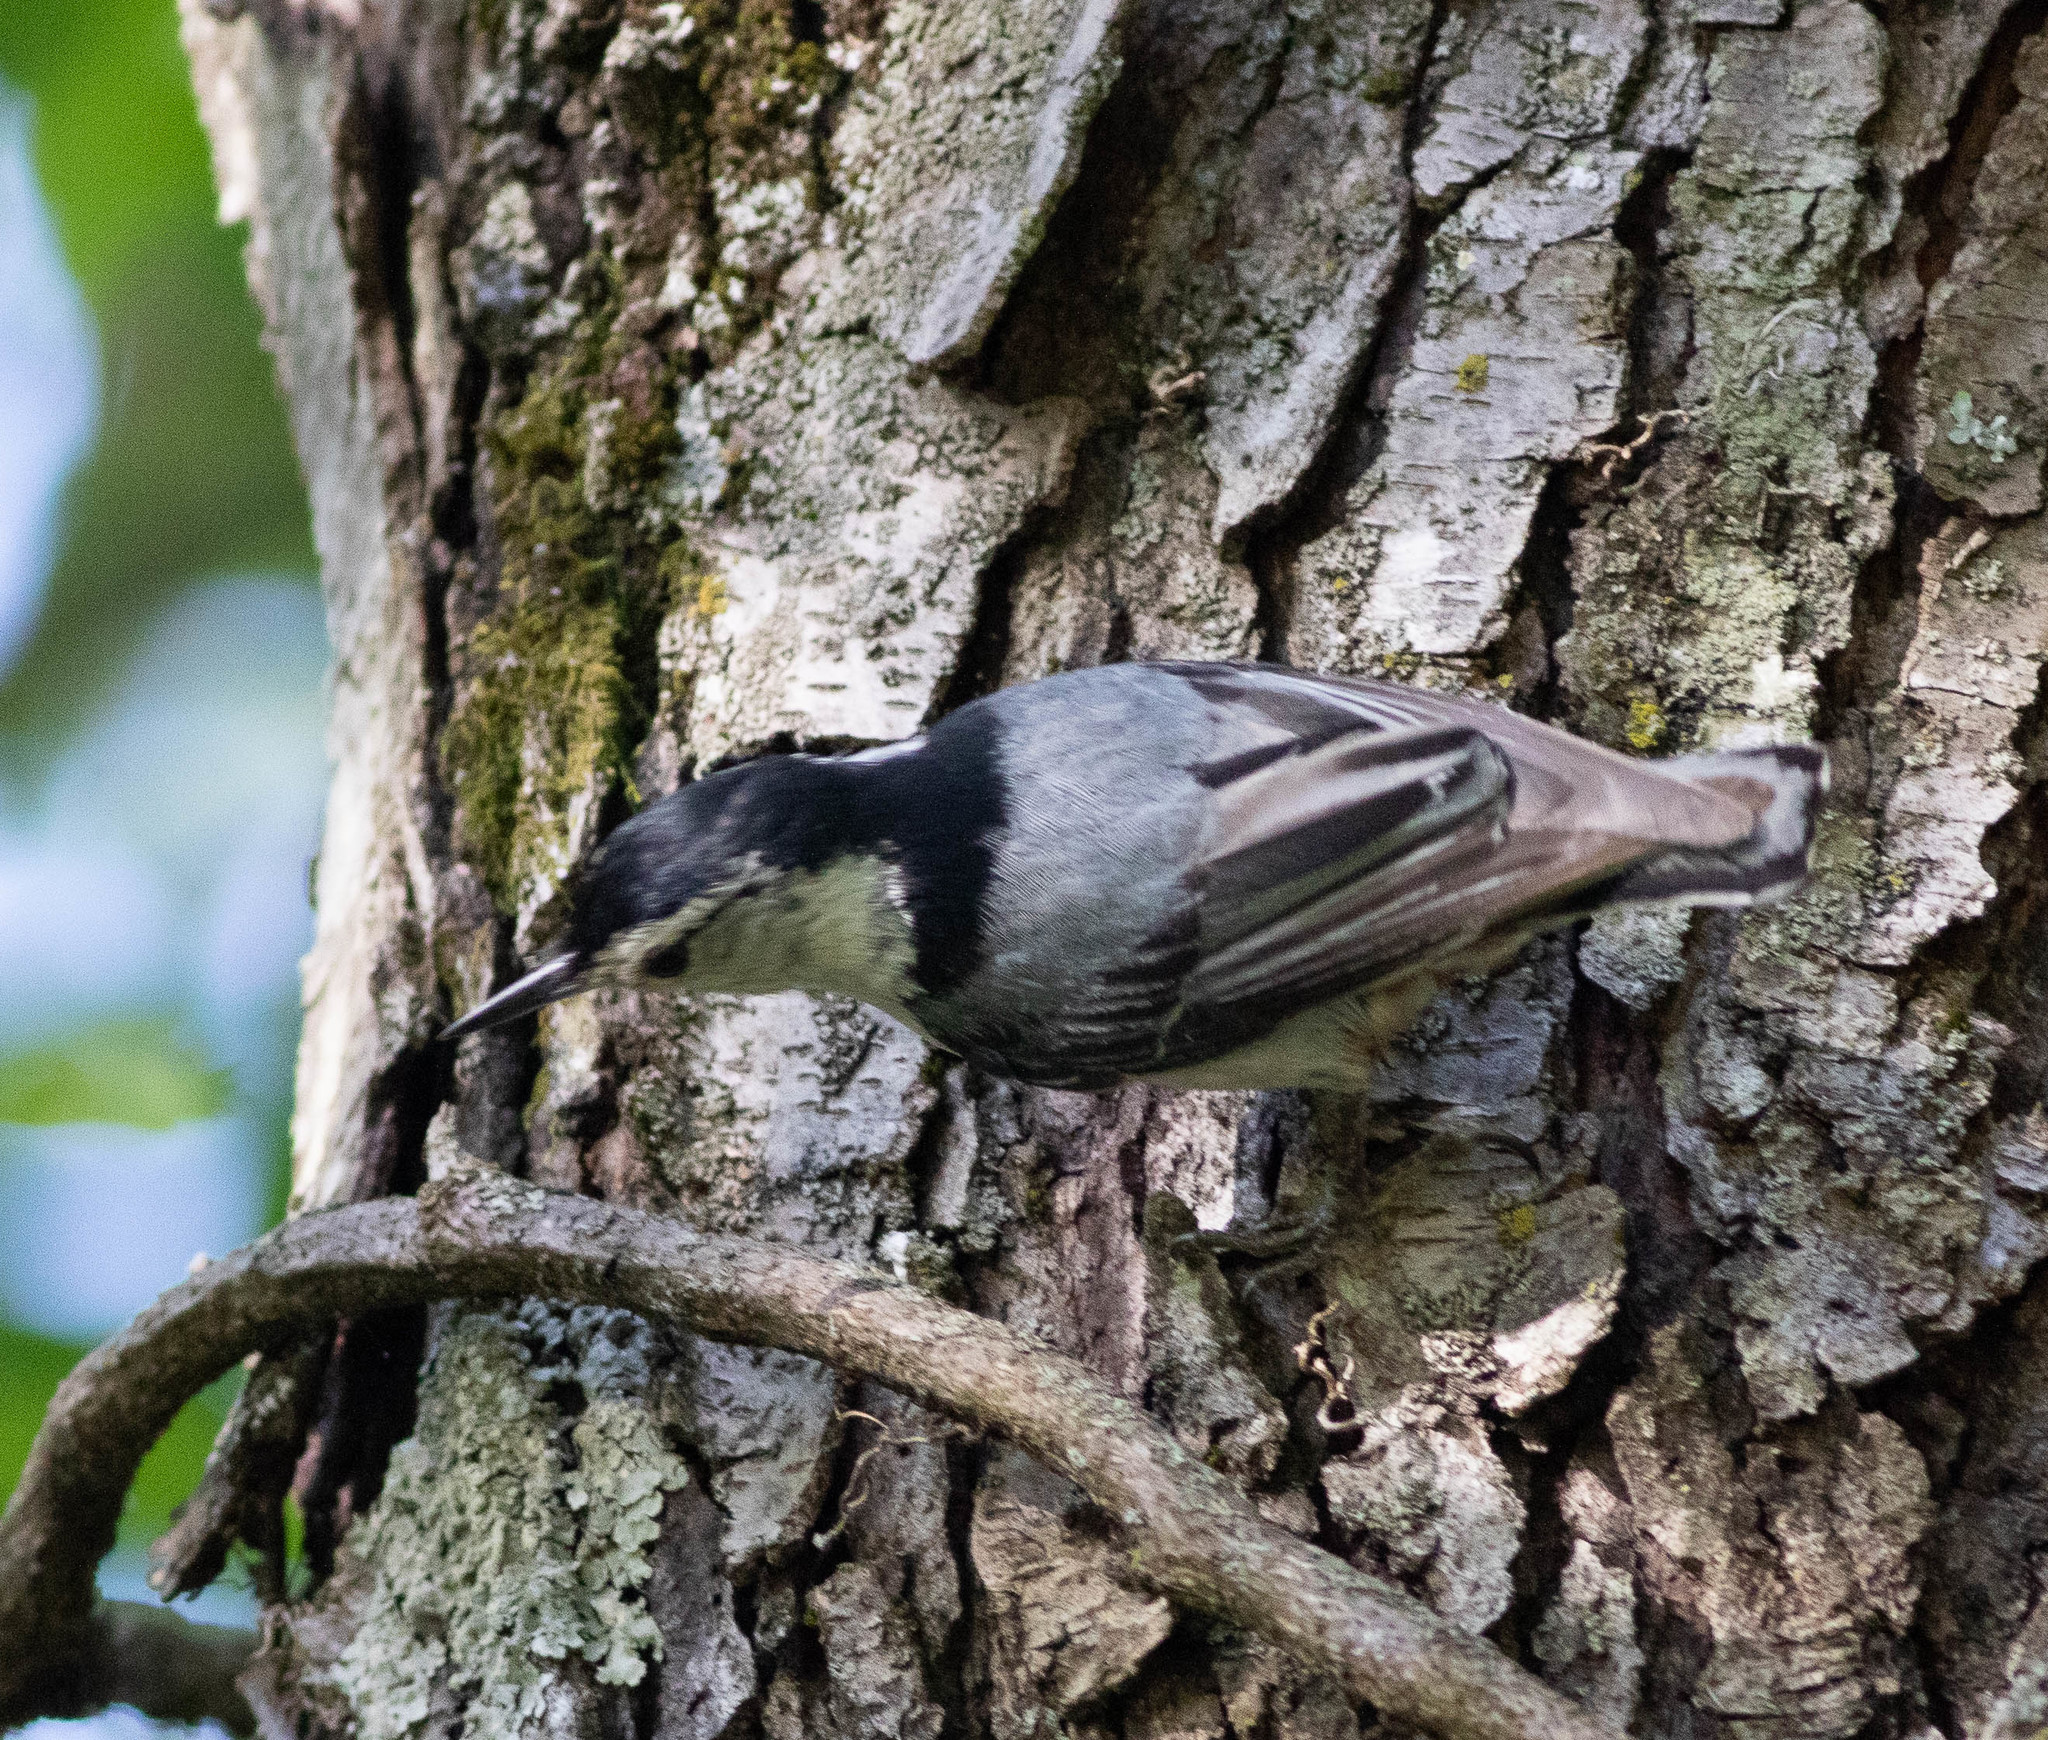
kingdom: Animalia
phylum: Chordata
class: Aves
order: Passeriformes
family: Sittidae
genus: Sitta
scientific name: Sitta carolinensis
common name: White-breasted nuthatch
